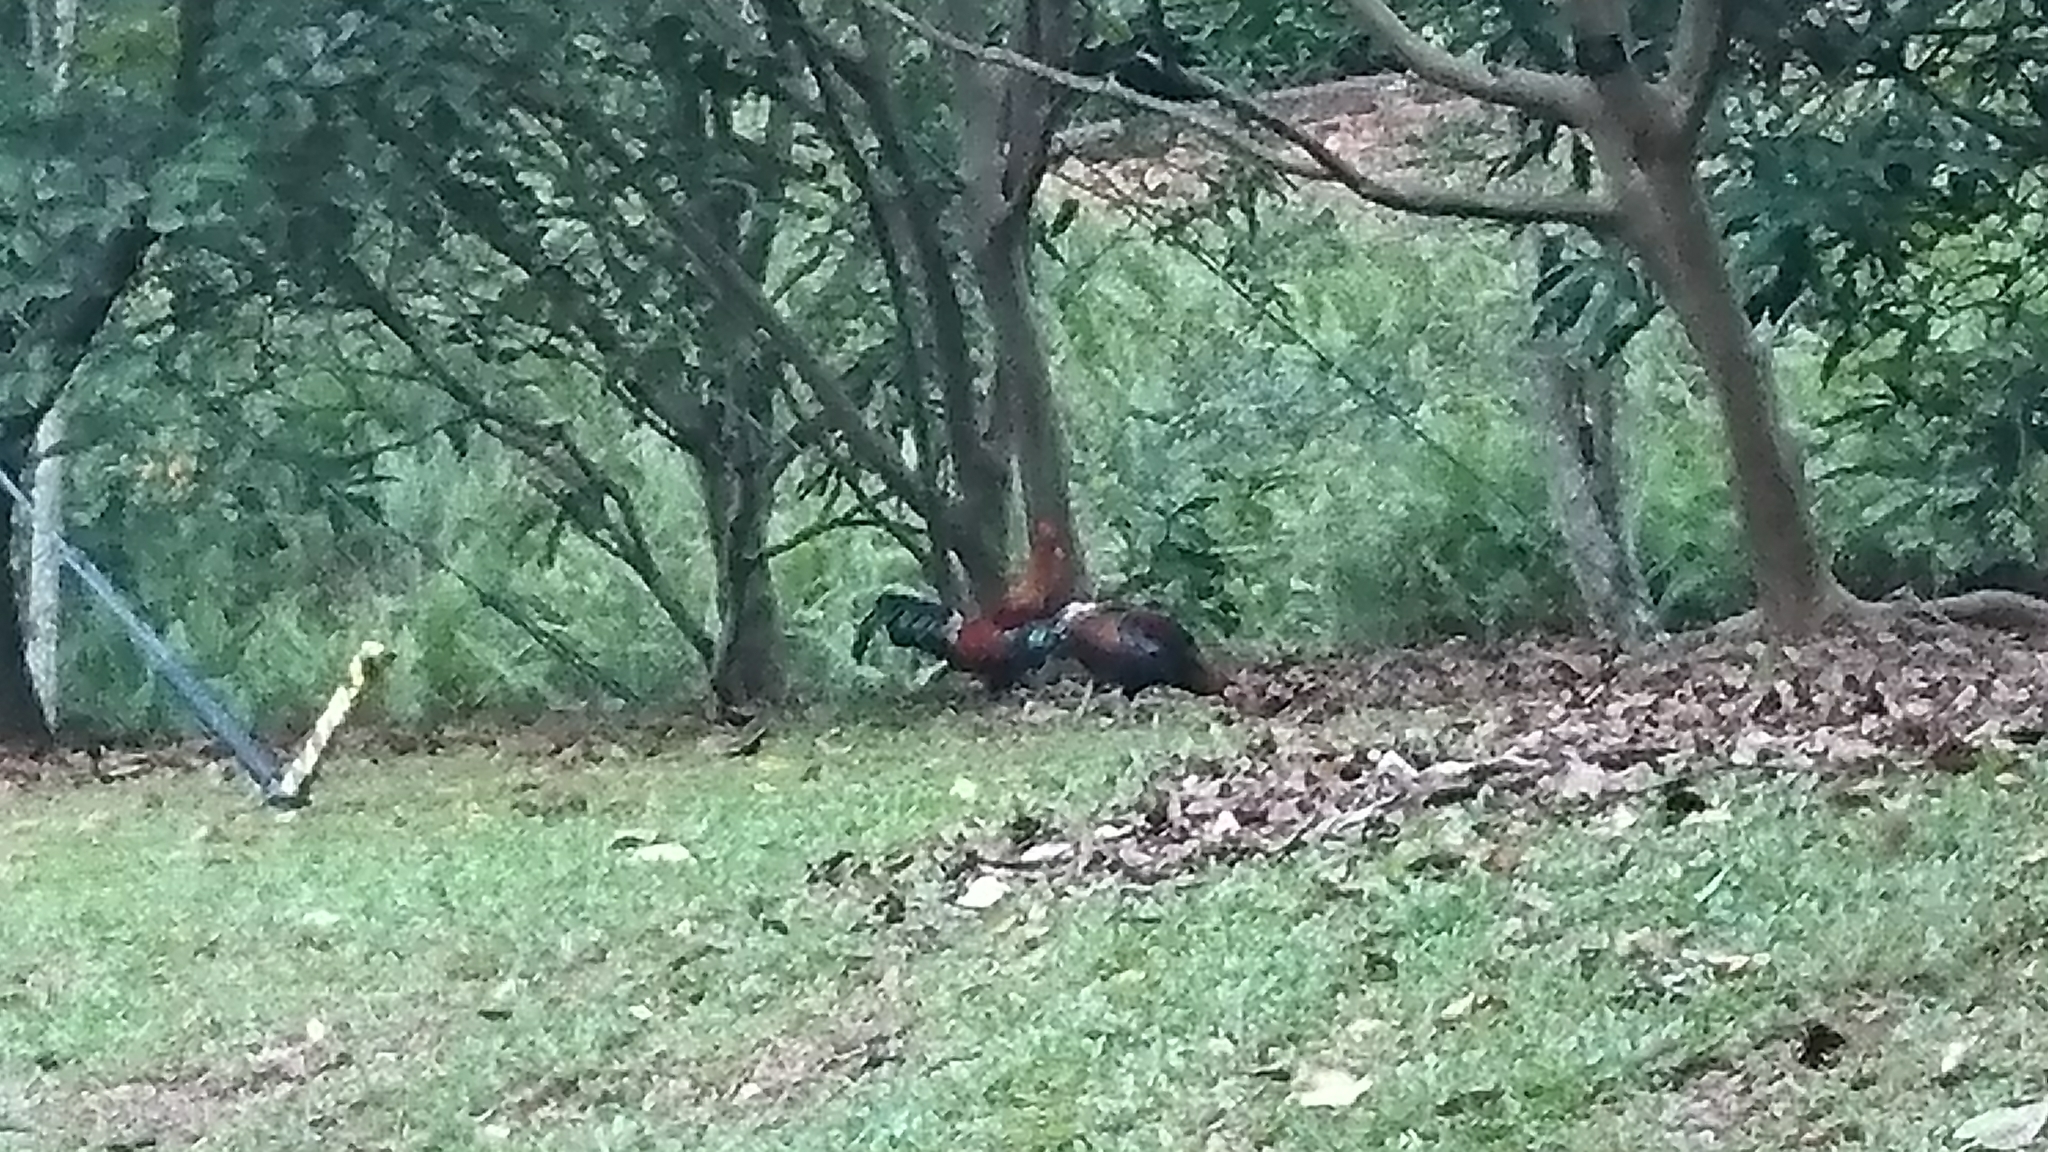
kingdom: Animalia
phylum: Chordata
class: Aves
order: Galliformes
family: Phasianidae
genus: Gallus
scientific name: Gallus gallus
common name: Red junglefowl
